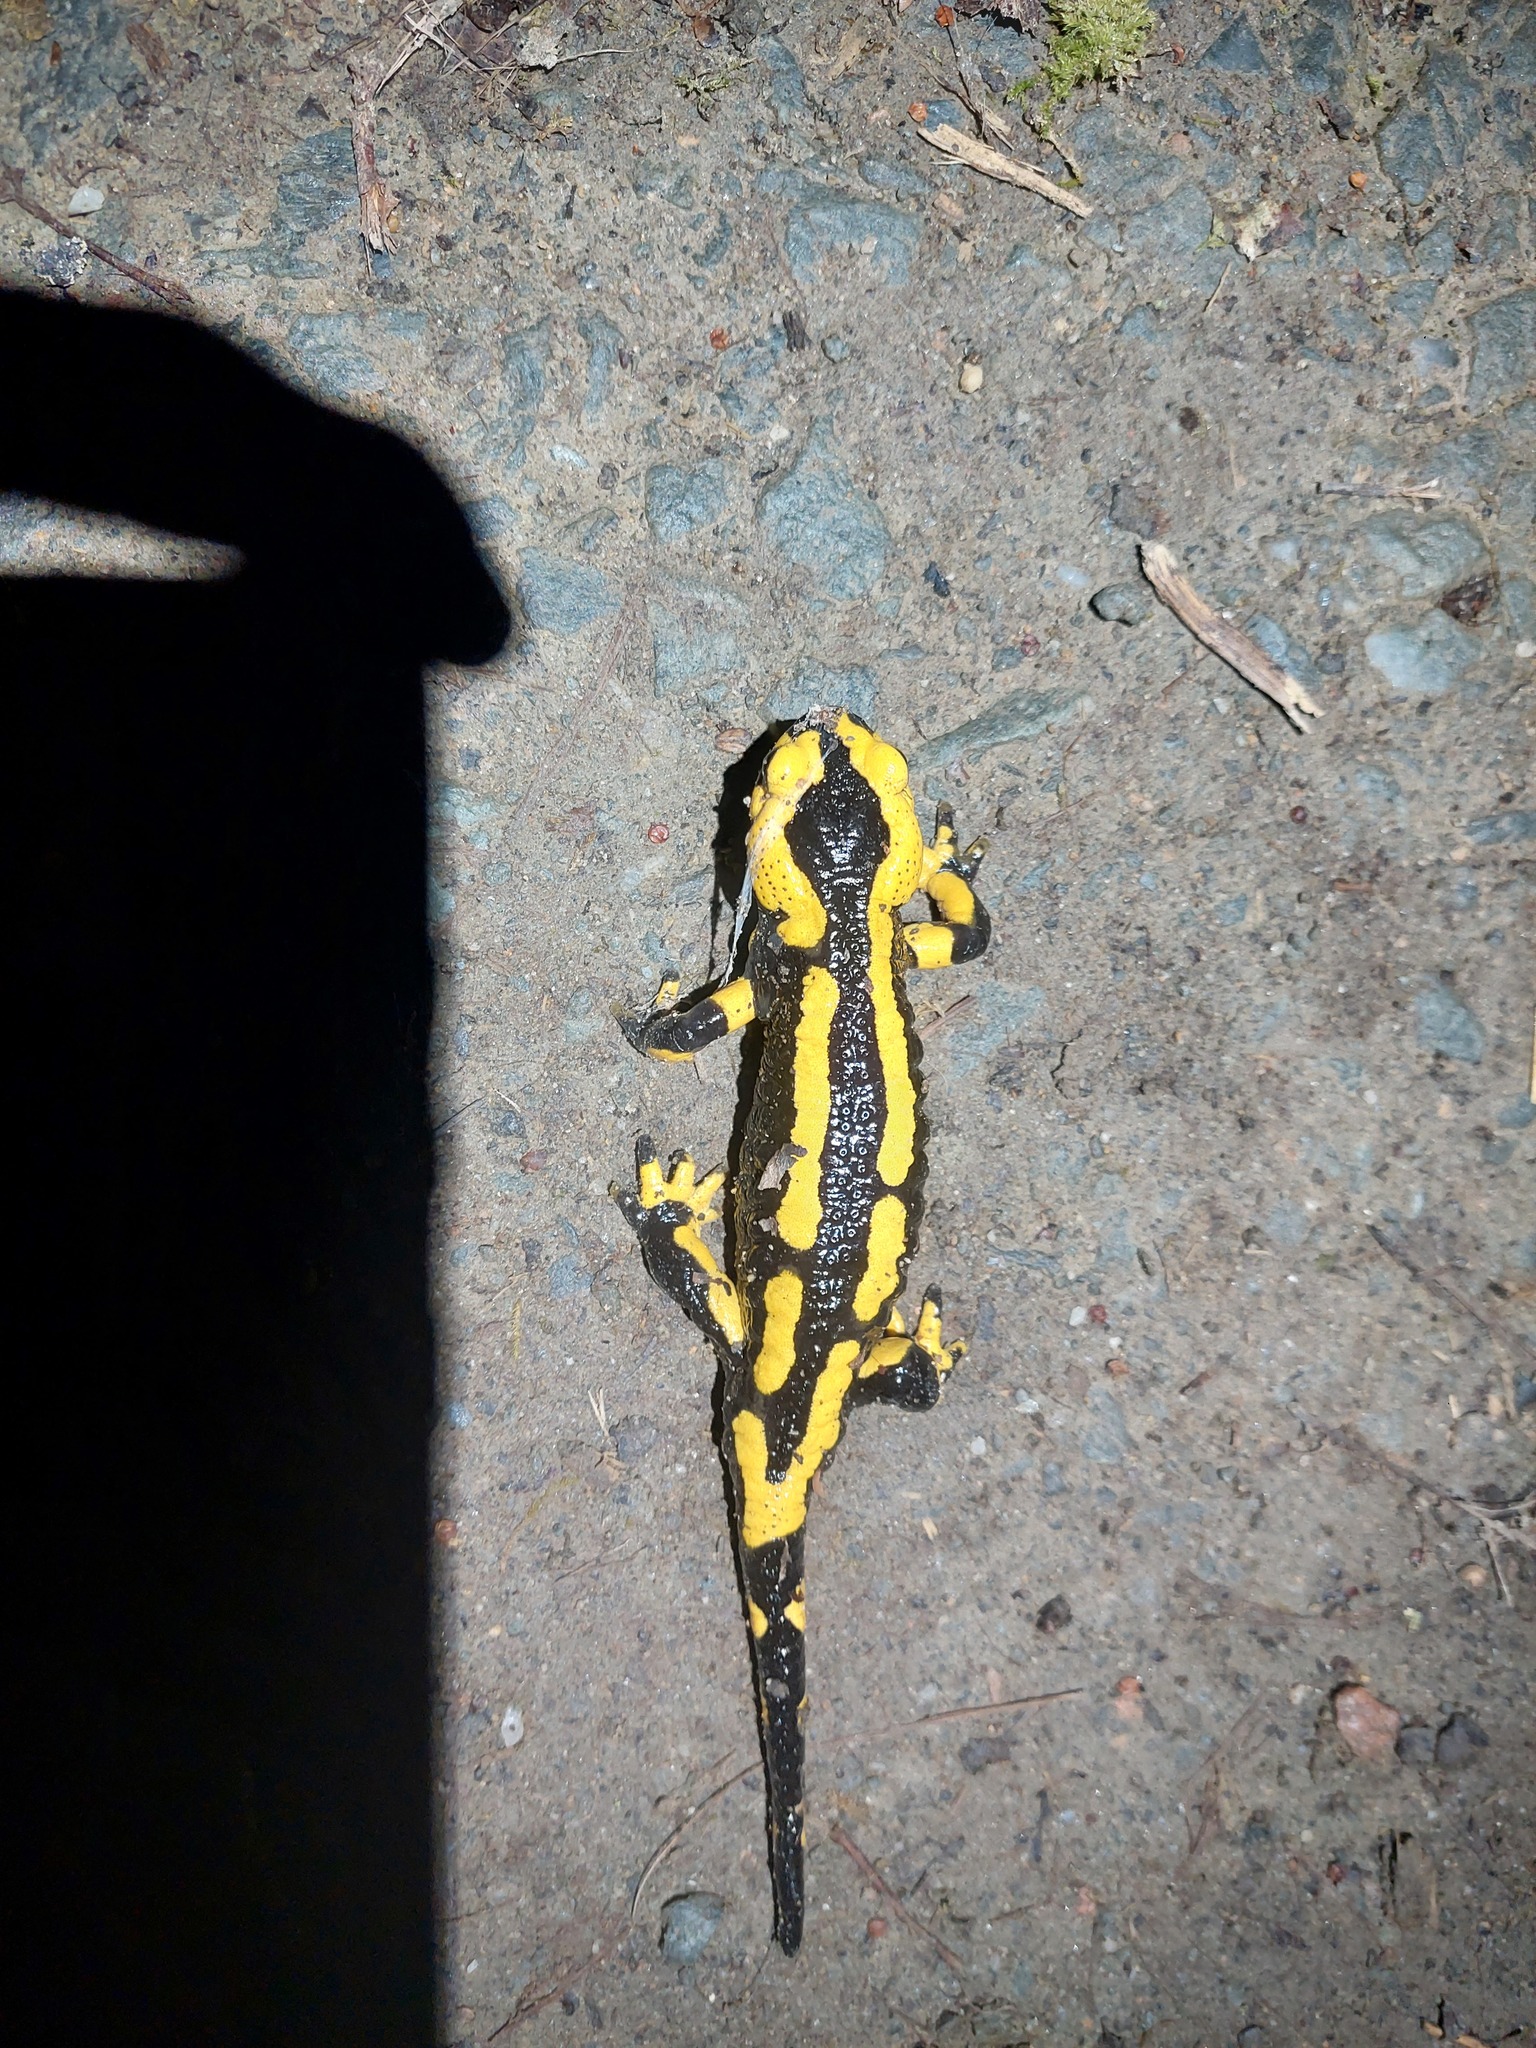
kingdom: Animalia
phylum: Chordata
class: Amphibia
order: Caudata
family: Salamandridae
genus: Salamandra
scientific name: Salamandra salamandra
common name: Fire salamander
